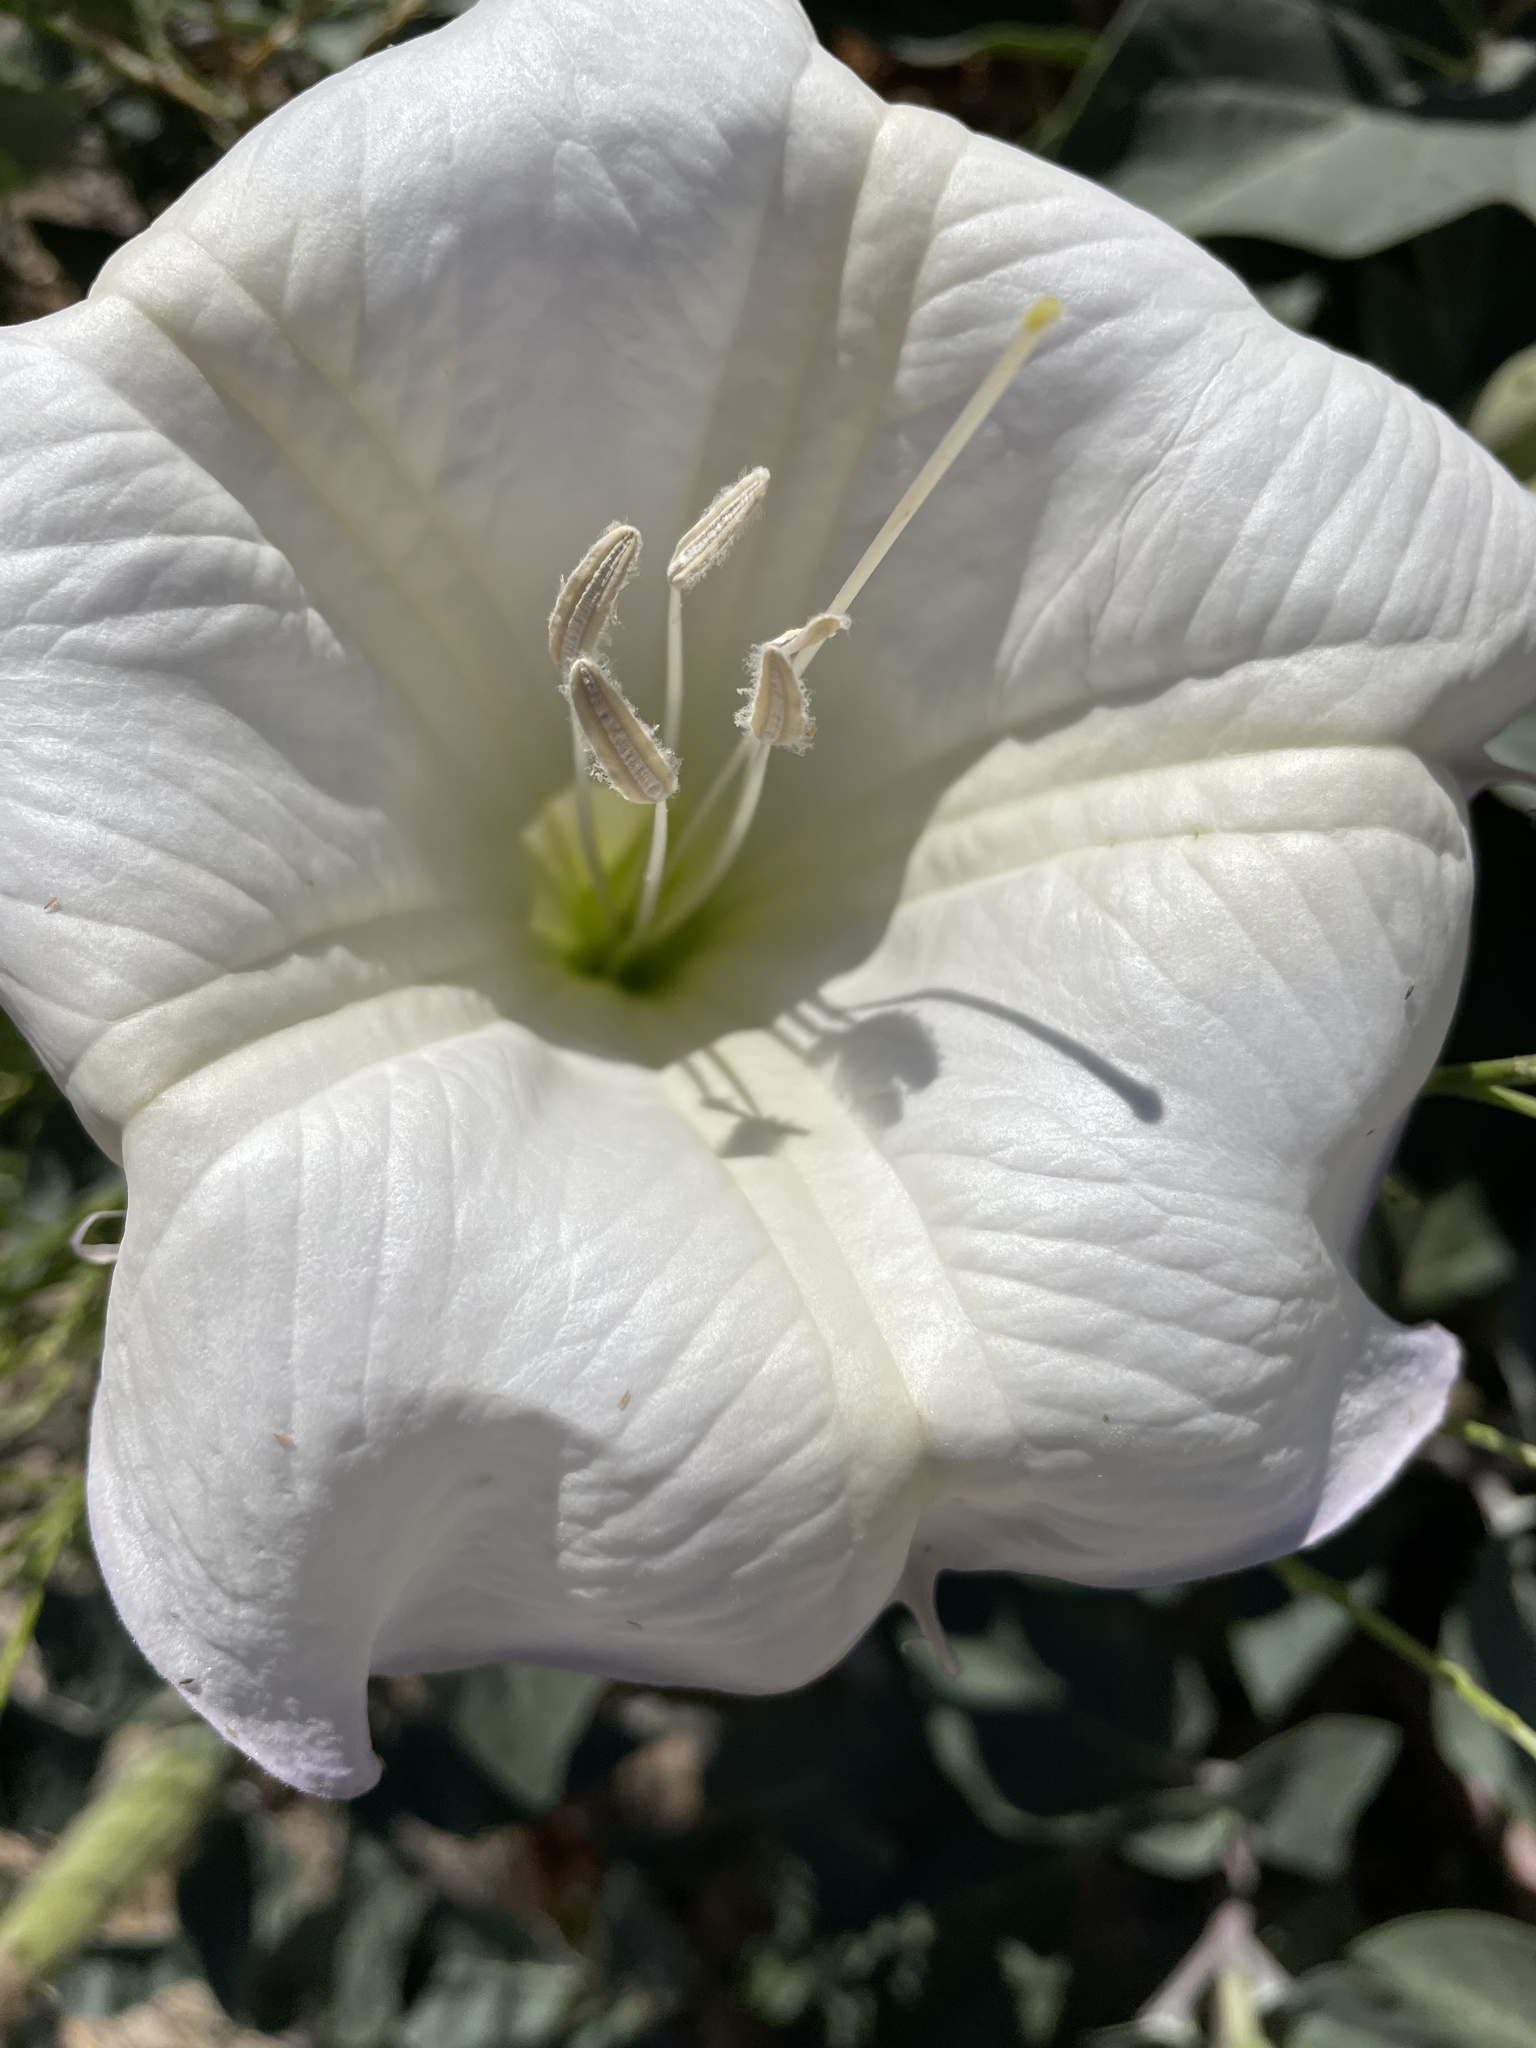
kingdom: Plantae
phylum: Tracheophyta
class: Magnoliopsida
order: Solanales
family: Solanaceae
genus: Datura
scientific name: Datura wrightii
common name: Sacred thorn-apple
